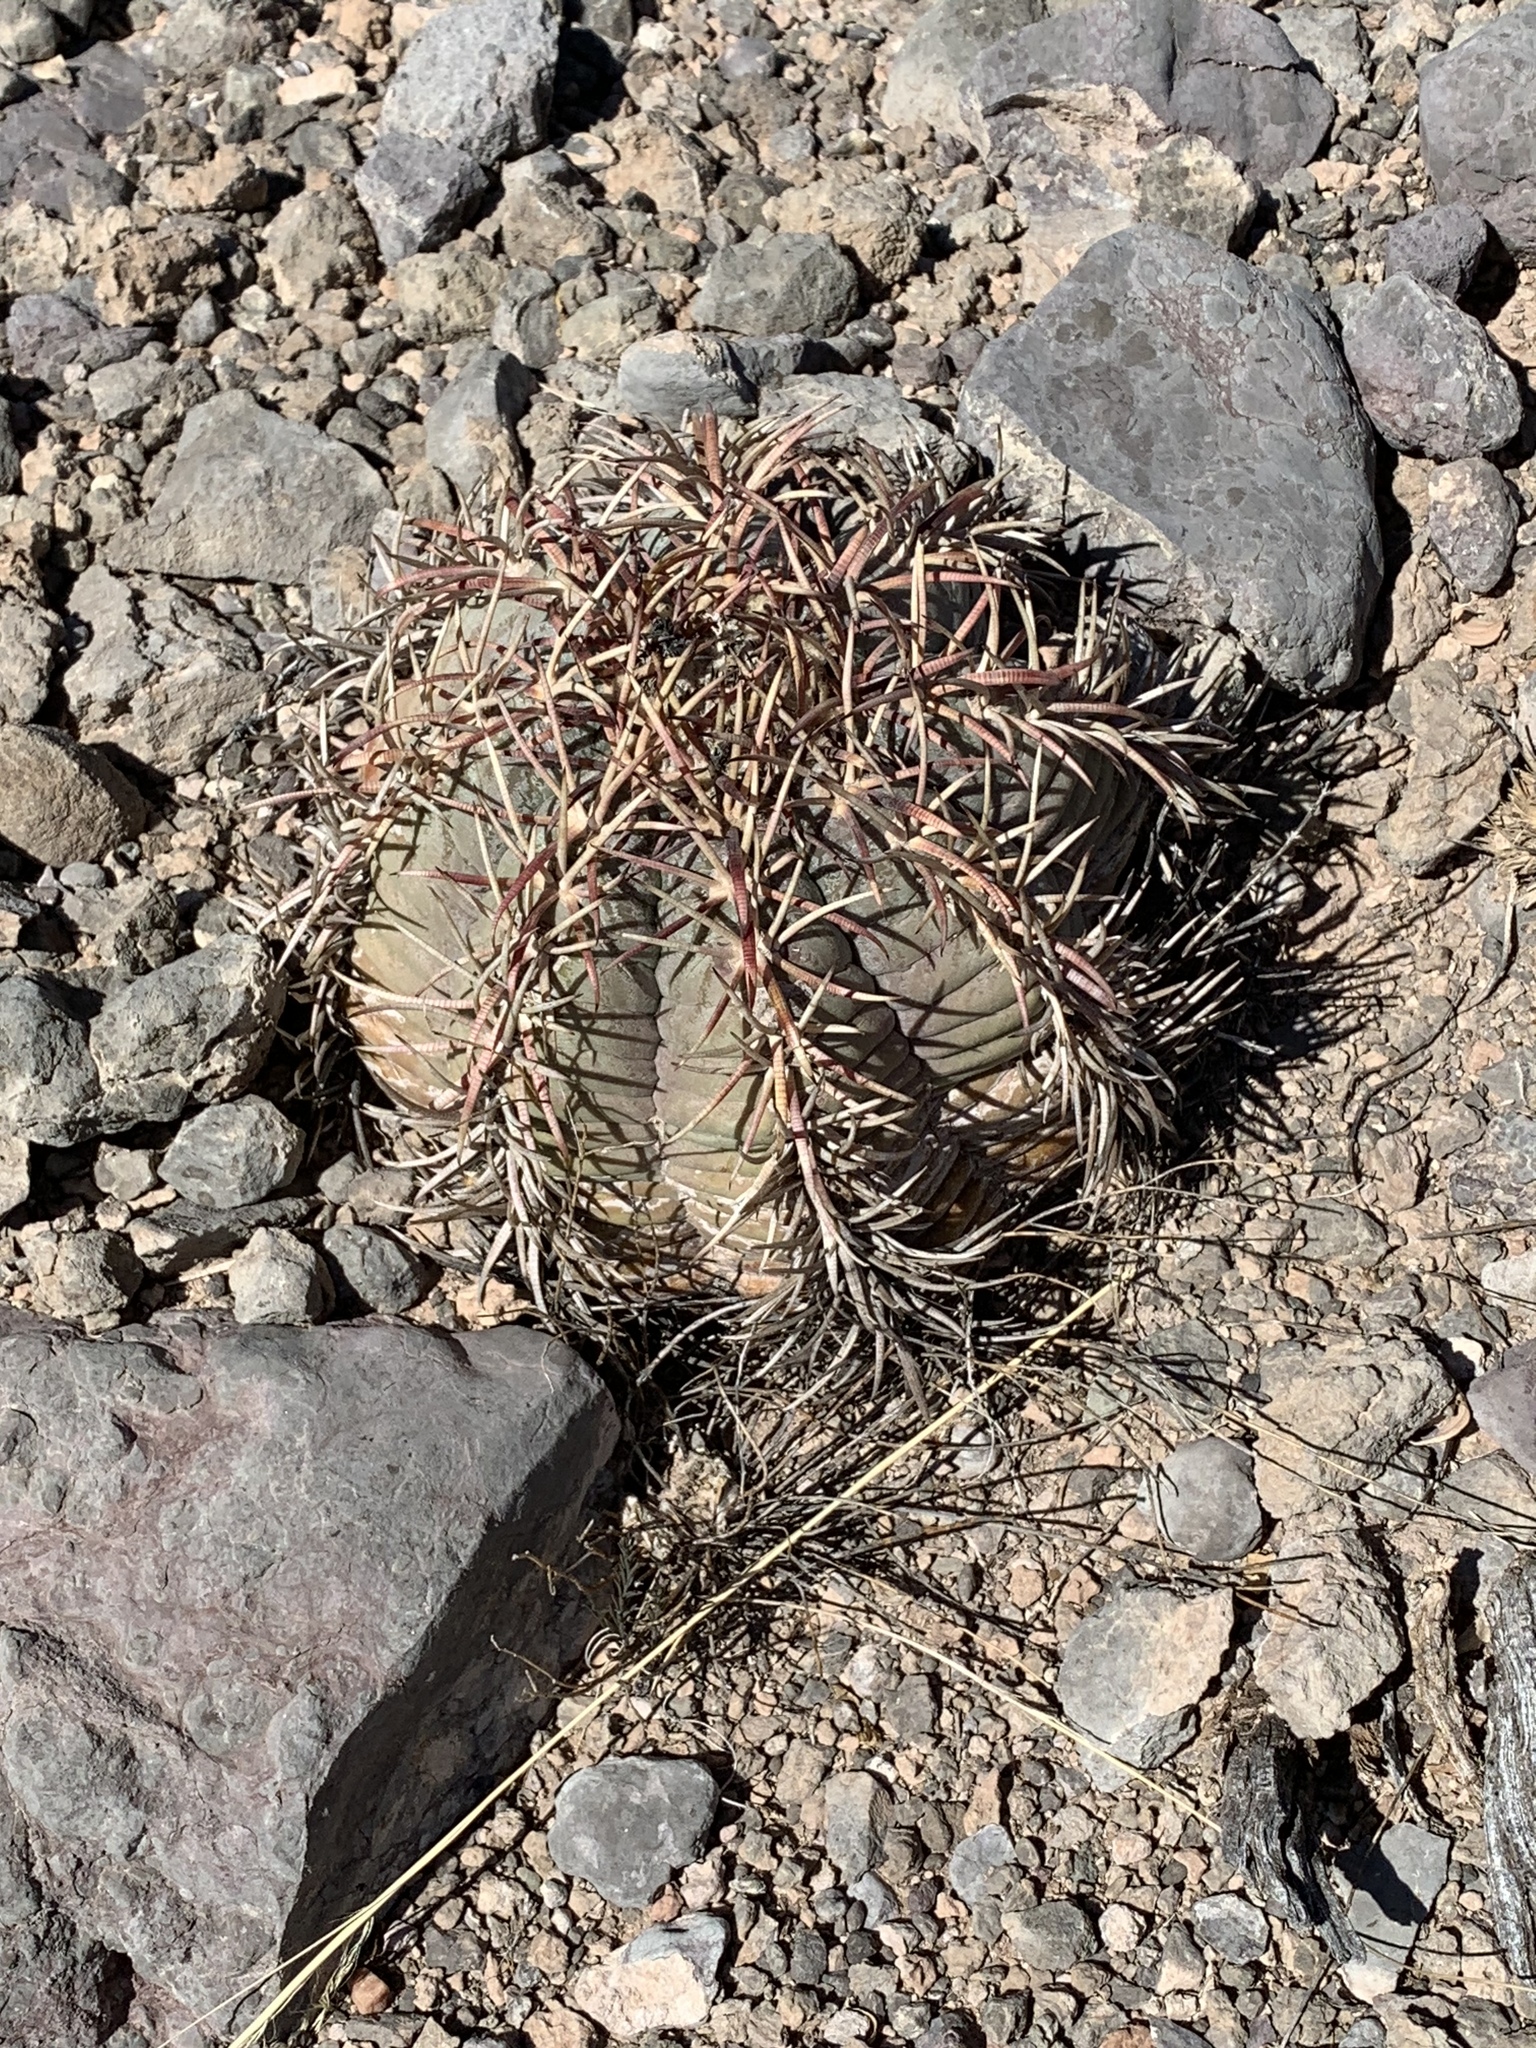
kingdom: Plantae
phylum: Tracheophyta
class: Magnoliopsida
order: Caryophyllales
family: Cactaceae
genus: Echinocactus
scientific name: Echinocactus horizonthalonius
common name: Devilshead
